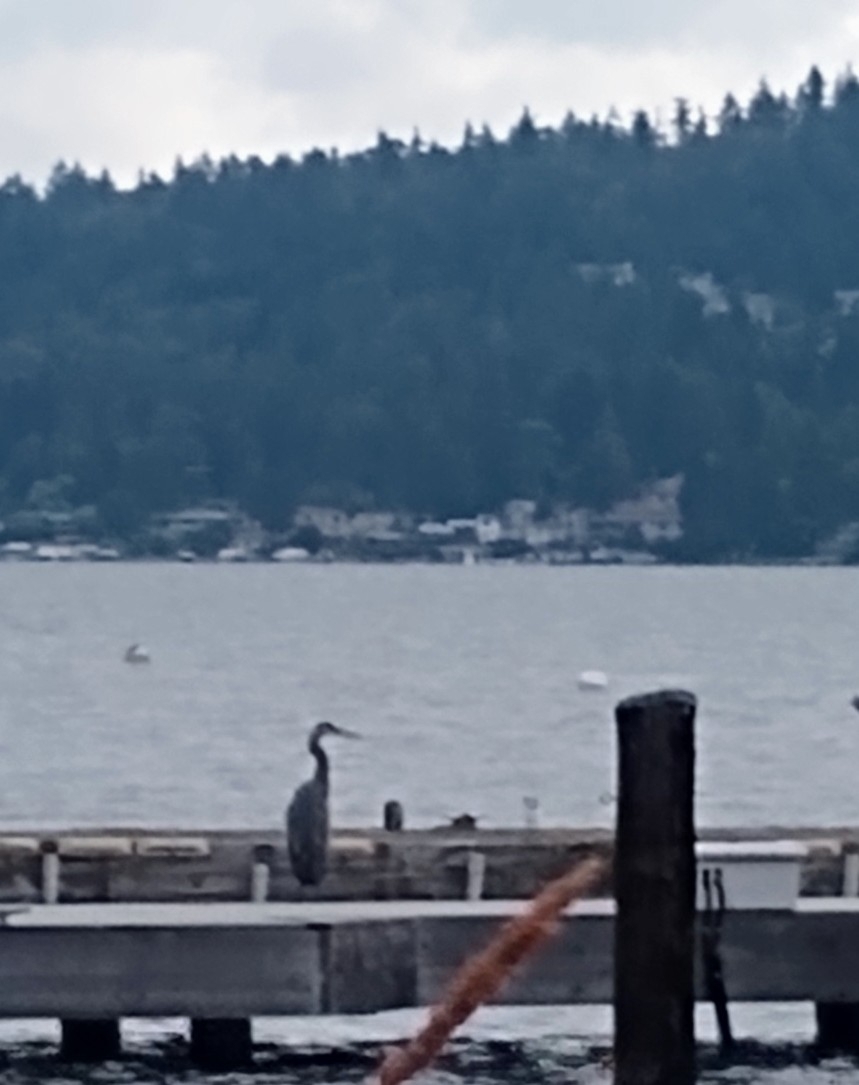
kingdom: Animalia
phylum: Chordata
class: Aves
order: Pelecaniformes
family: Ardeidae
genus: Ardea
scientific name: Ardea herodias
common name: Great blue heron
